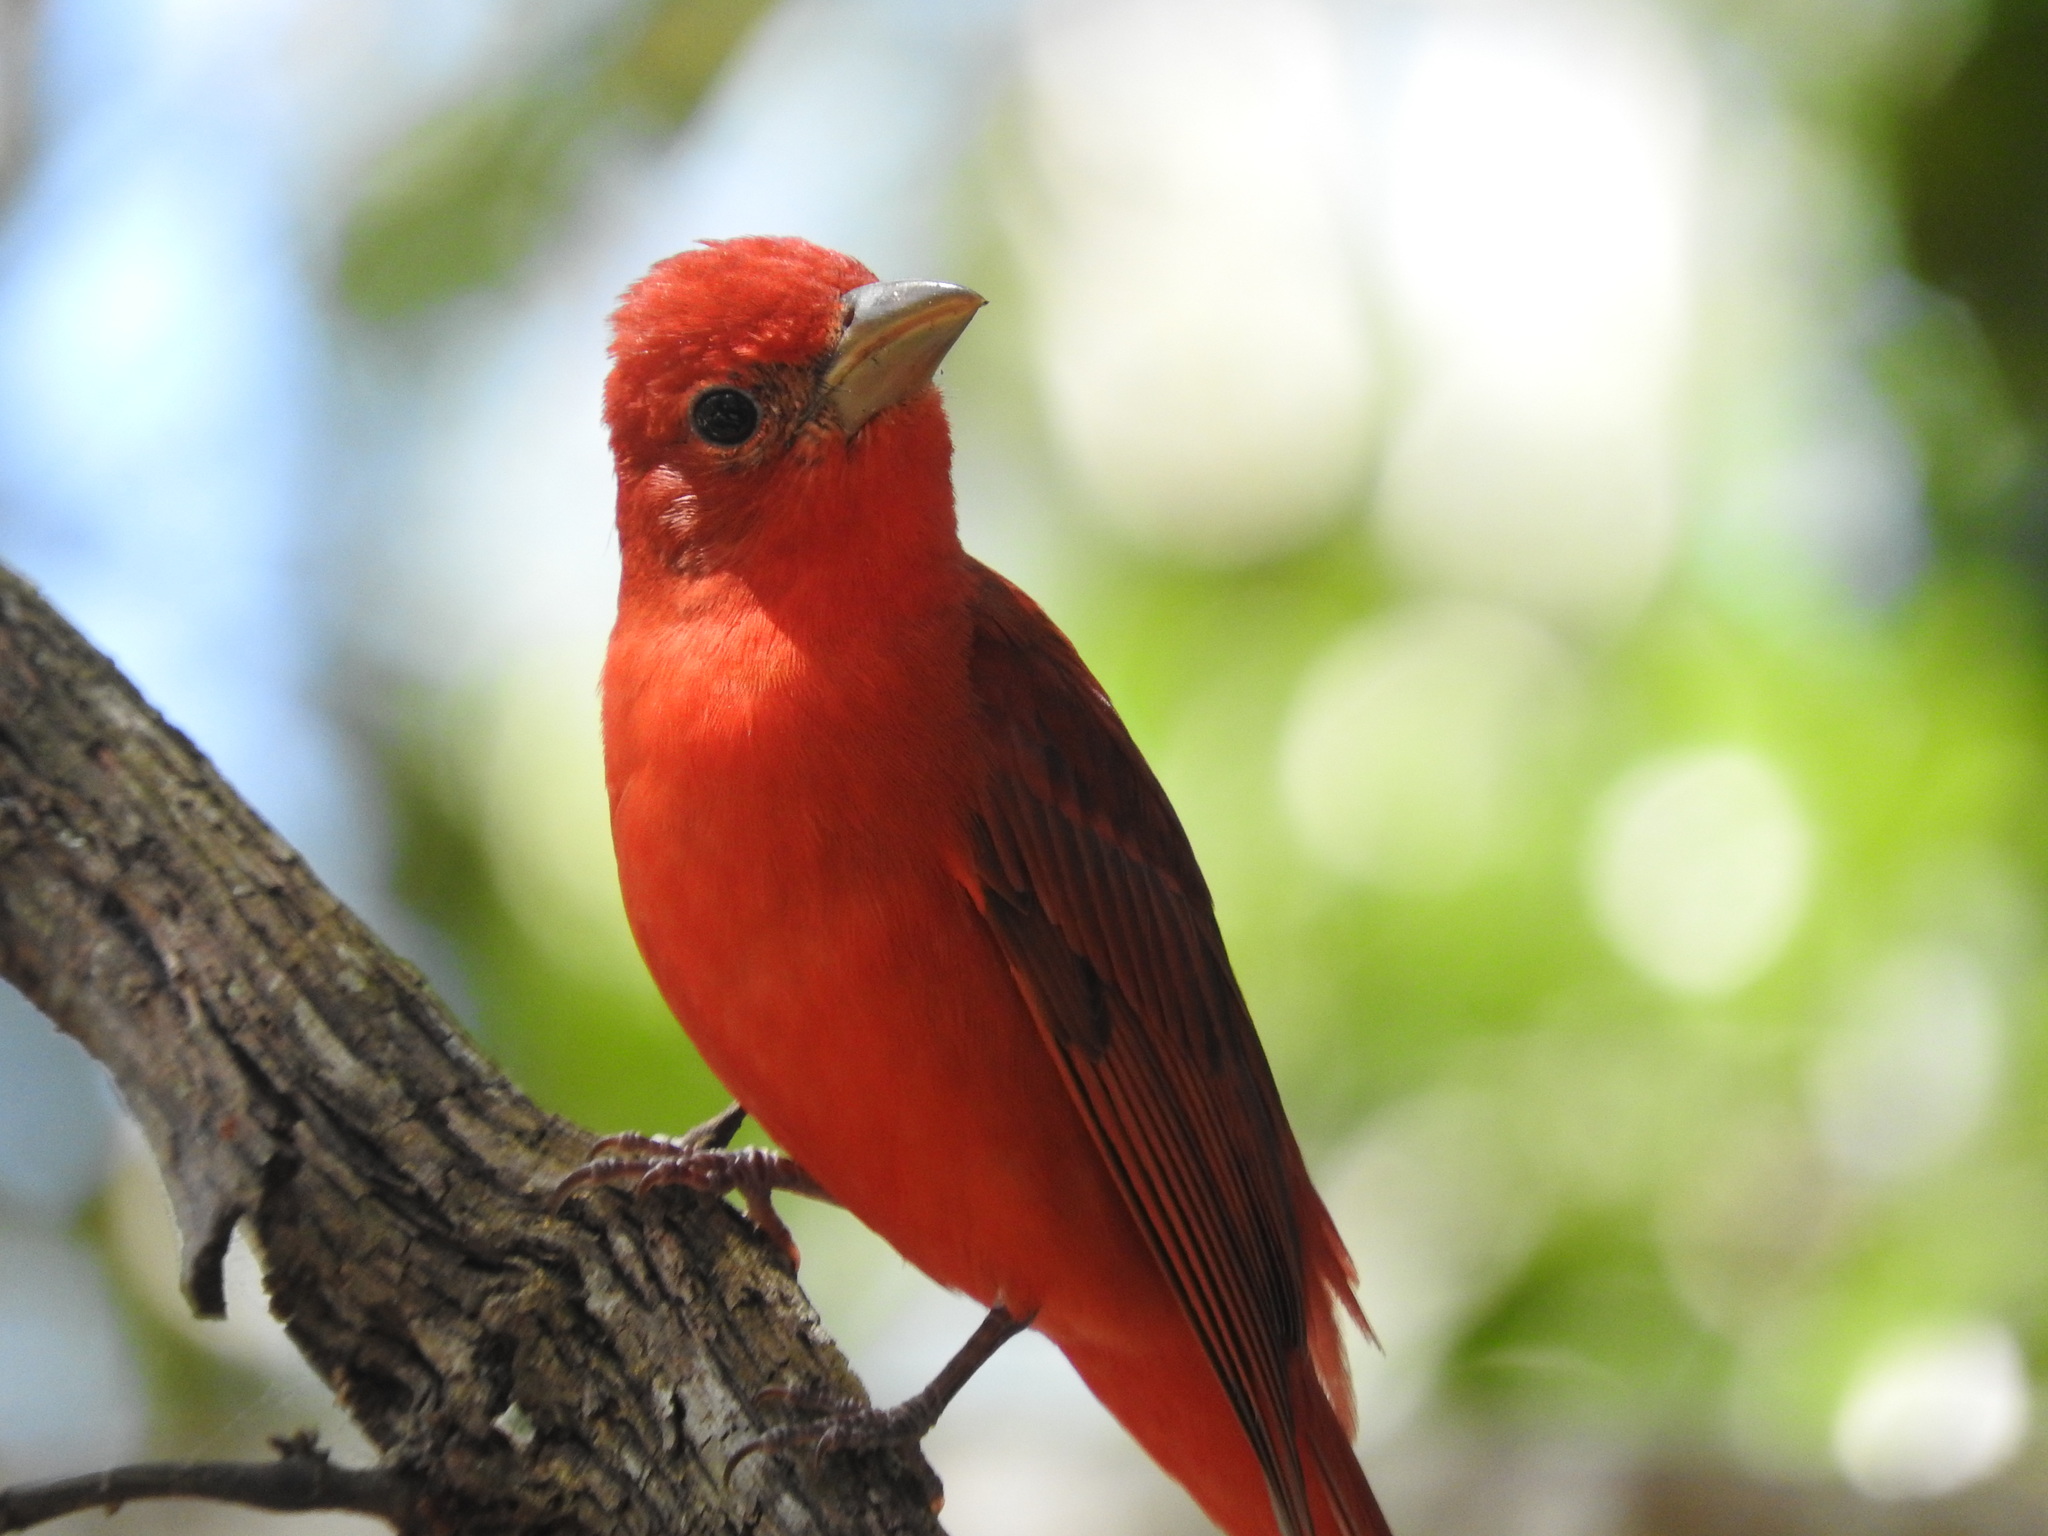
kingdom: Animalia
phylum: Chordata
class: Aves
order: Passeriformes
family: Cardinalidae
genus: Piranga
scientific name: Piranga rubra
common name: Summer tanager
